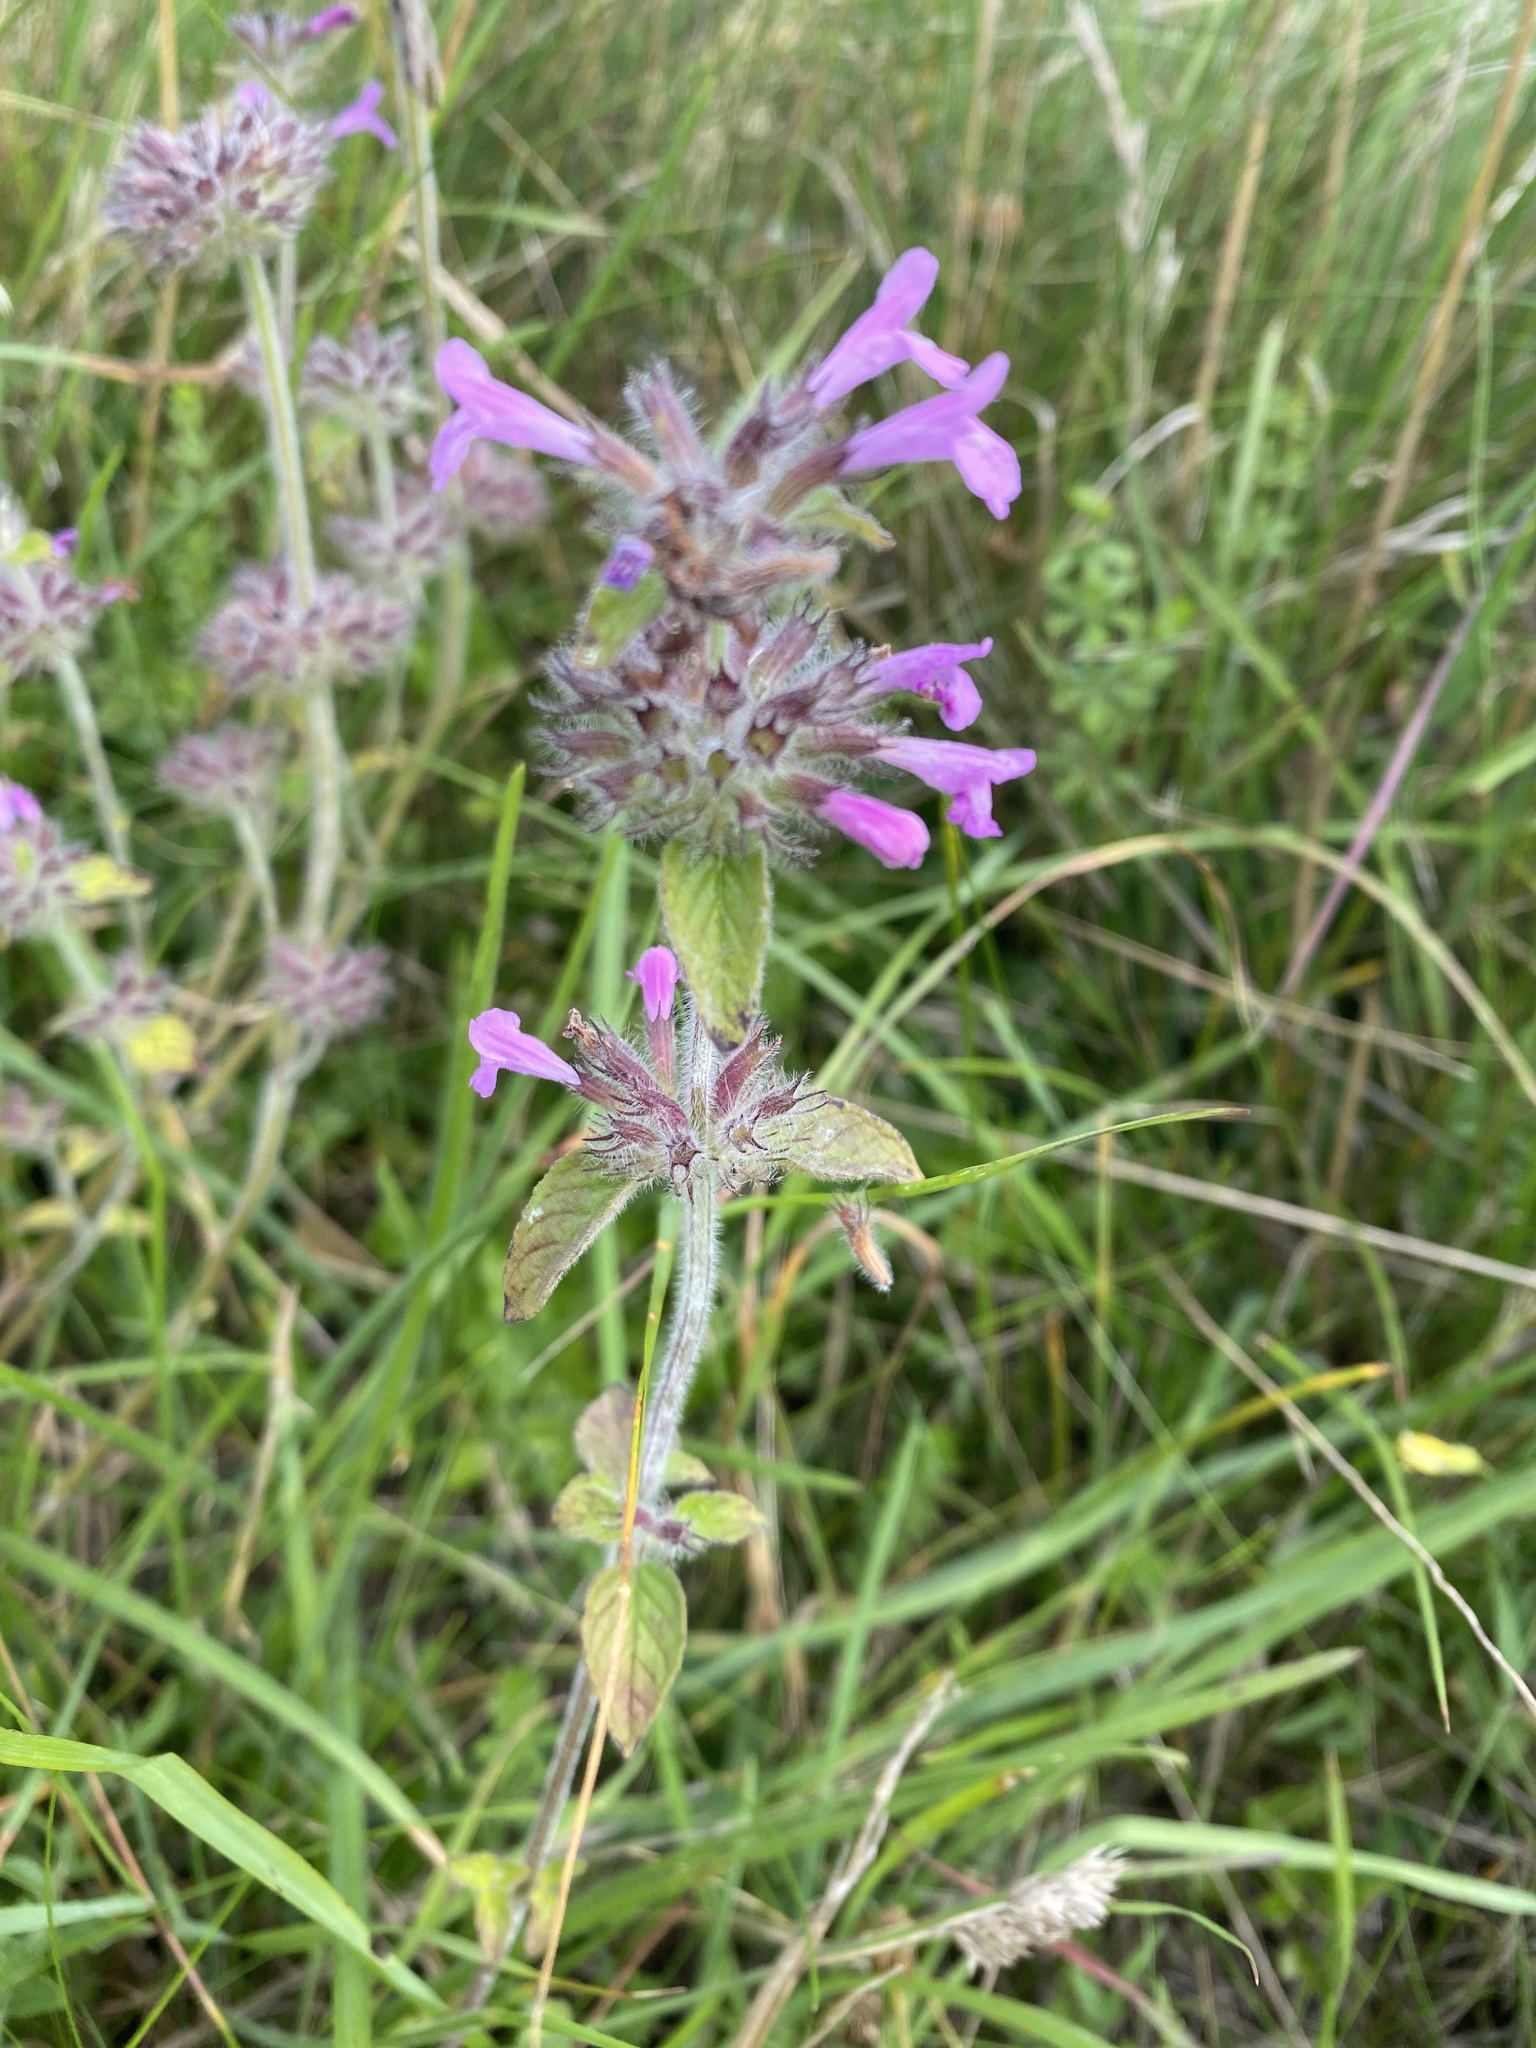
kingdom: Plantae
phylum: Tracheophyta
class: Magnoliopsida
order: Lamiales
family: Lamiaceae
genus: Clinopodium
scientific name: Clinopodium vulgare
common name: Wild basil
